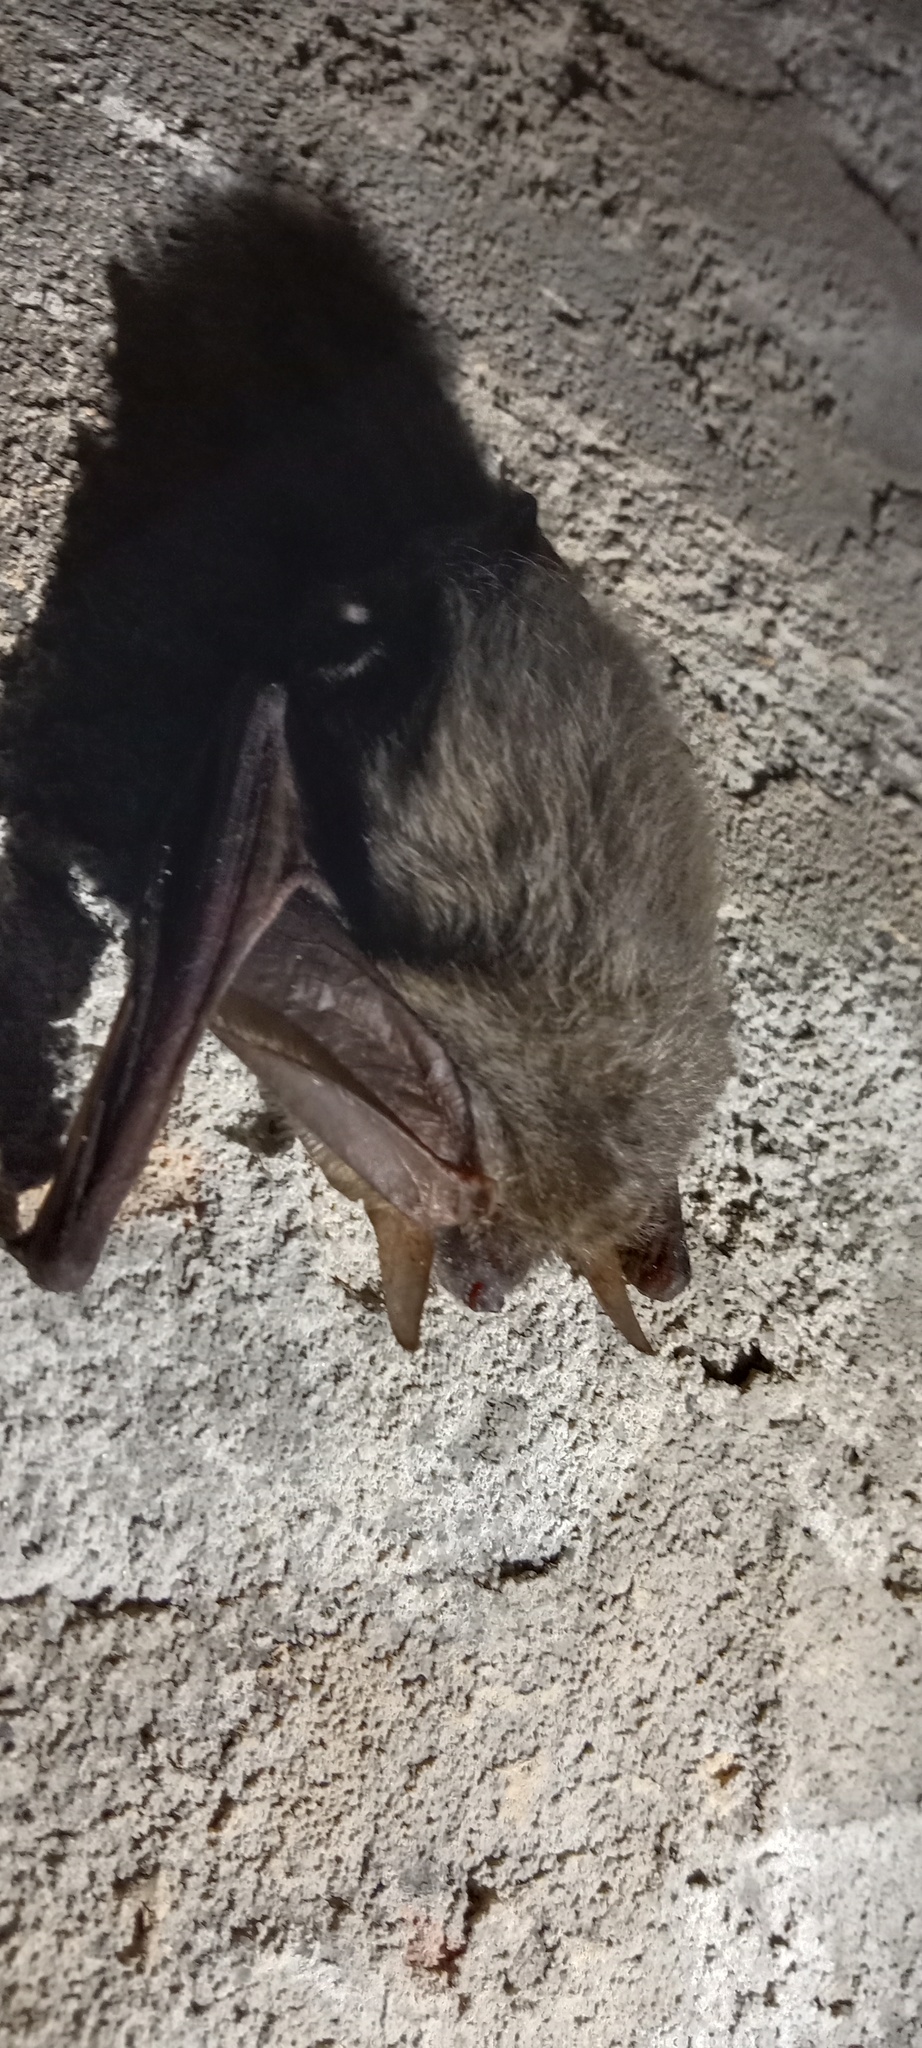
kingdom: Animalia
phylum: Chordata
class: Mammalia
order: Chiroptera
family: Vespertilionidae
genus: Plecotus
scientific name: Plecotus austriacus
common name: Grey long-eared bat
